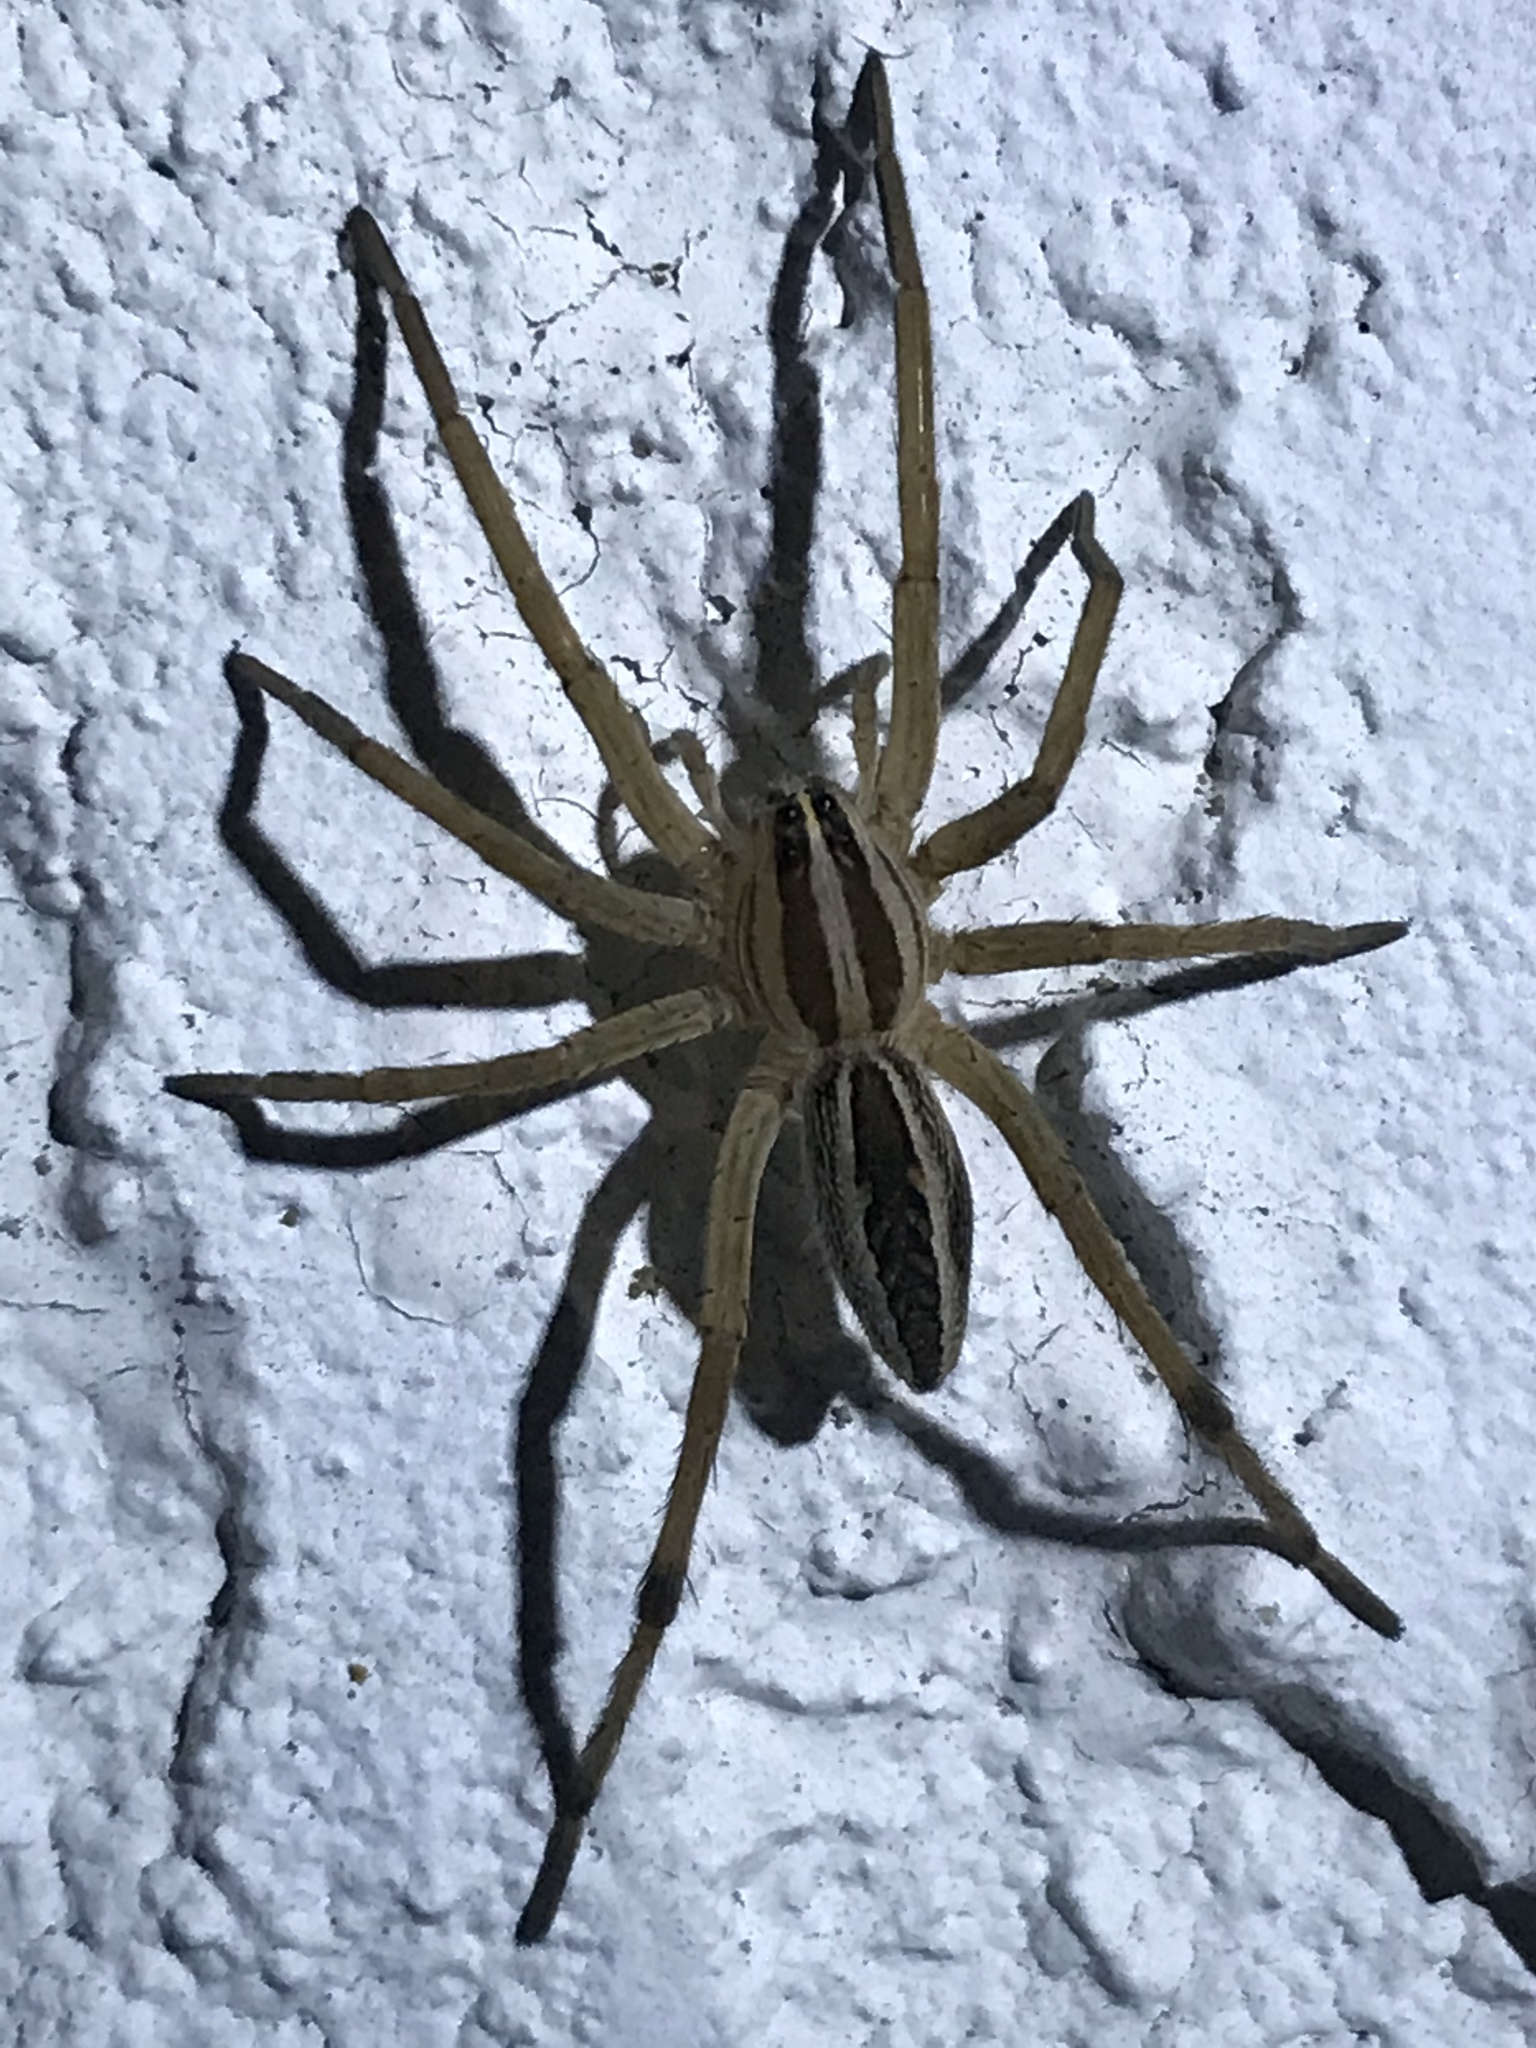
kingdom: Animalia
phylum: Arthropoda
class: Arachnida
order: Araneae
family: Lycosidae
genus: Rabidosa
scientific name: Rabidosa rabida
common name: Rabid wolf spider
